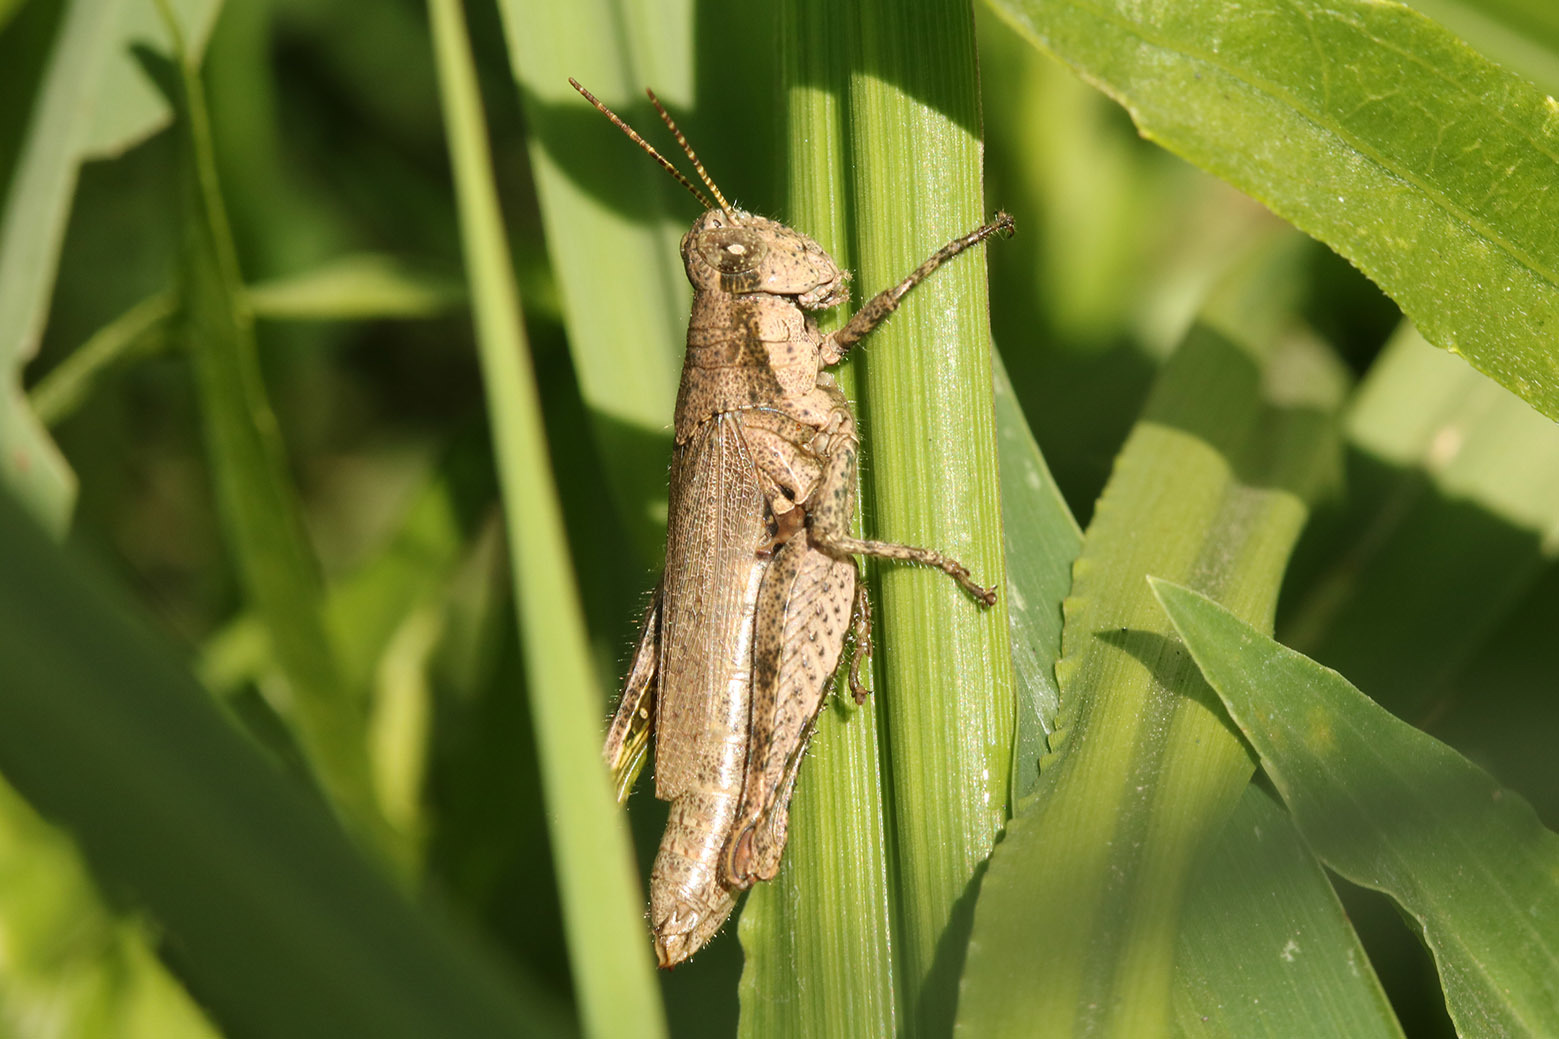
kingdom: Animalia
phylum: Arthropoda
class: Insecta
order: Orthoptera
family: Acrididae
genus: Ronderosia
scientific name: Ronderosia bergii
